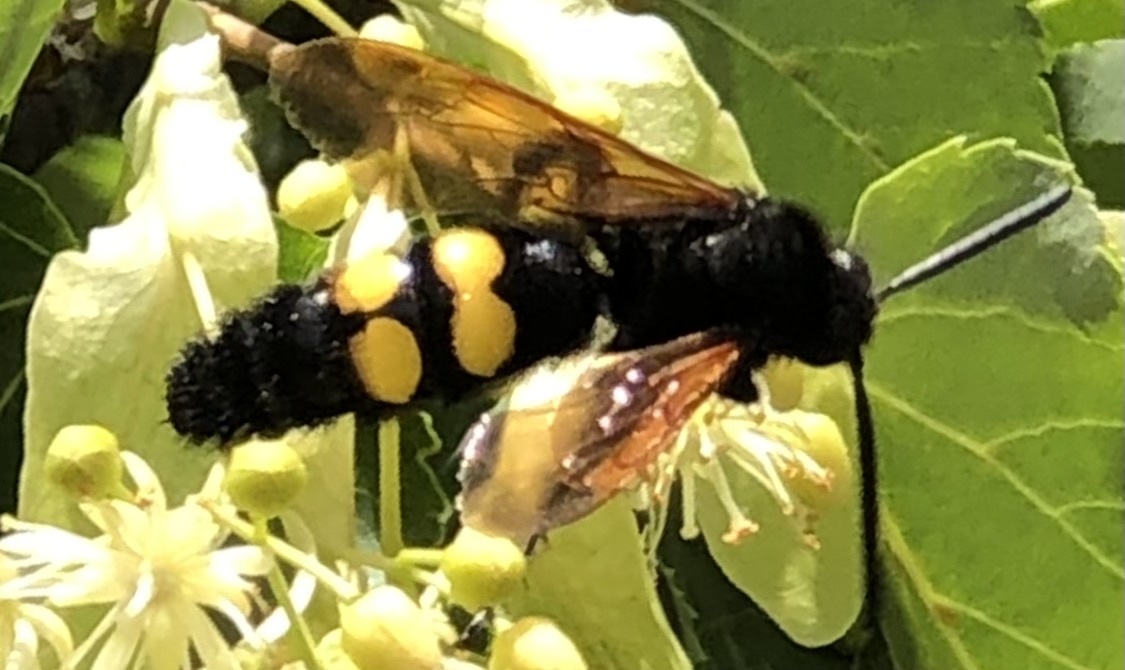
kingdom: Animalia
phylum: Arthropoda
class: Insecta
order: Hymenoptera
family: Scoliidae
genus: Megascolia
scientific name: Megascolia maculata
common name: Mammoth wasp
